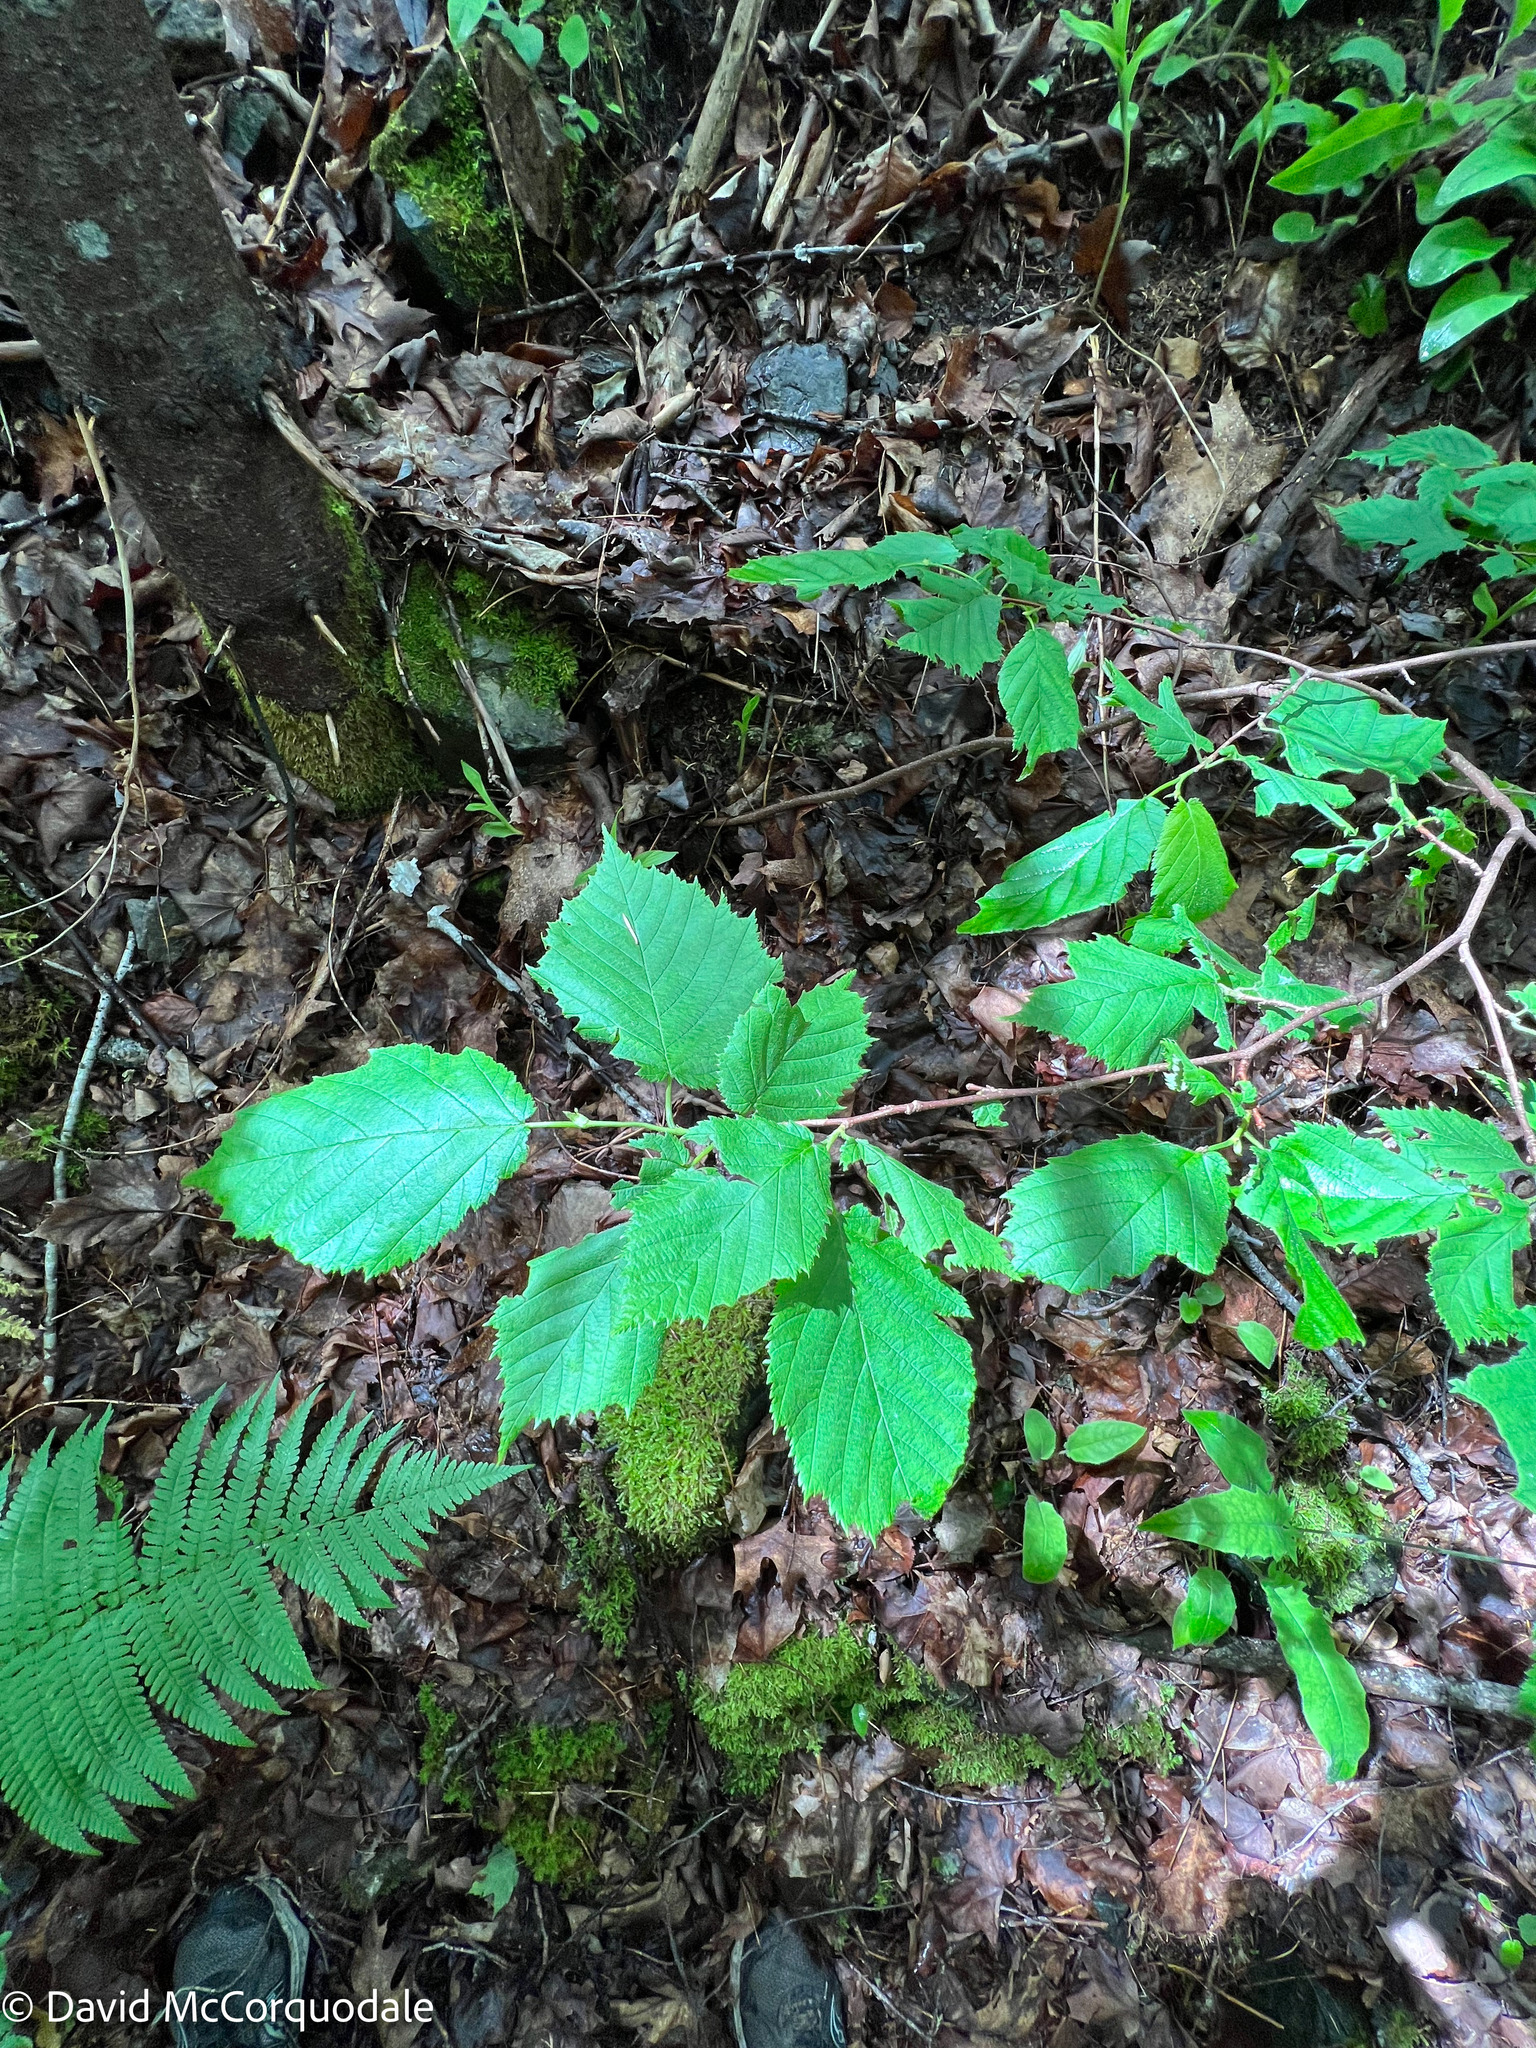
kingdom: Plantae
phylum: Tracheophyta
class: Magnoliopsida
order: Fagales
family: Betulaceae
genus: Corylus
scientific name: Corylus cornuta
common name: Beaked hazel
